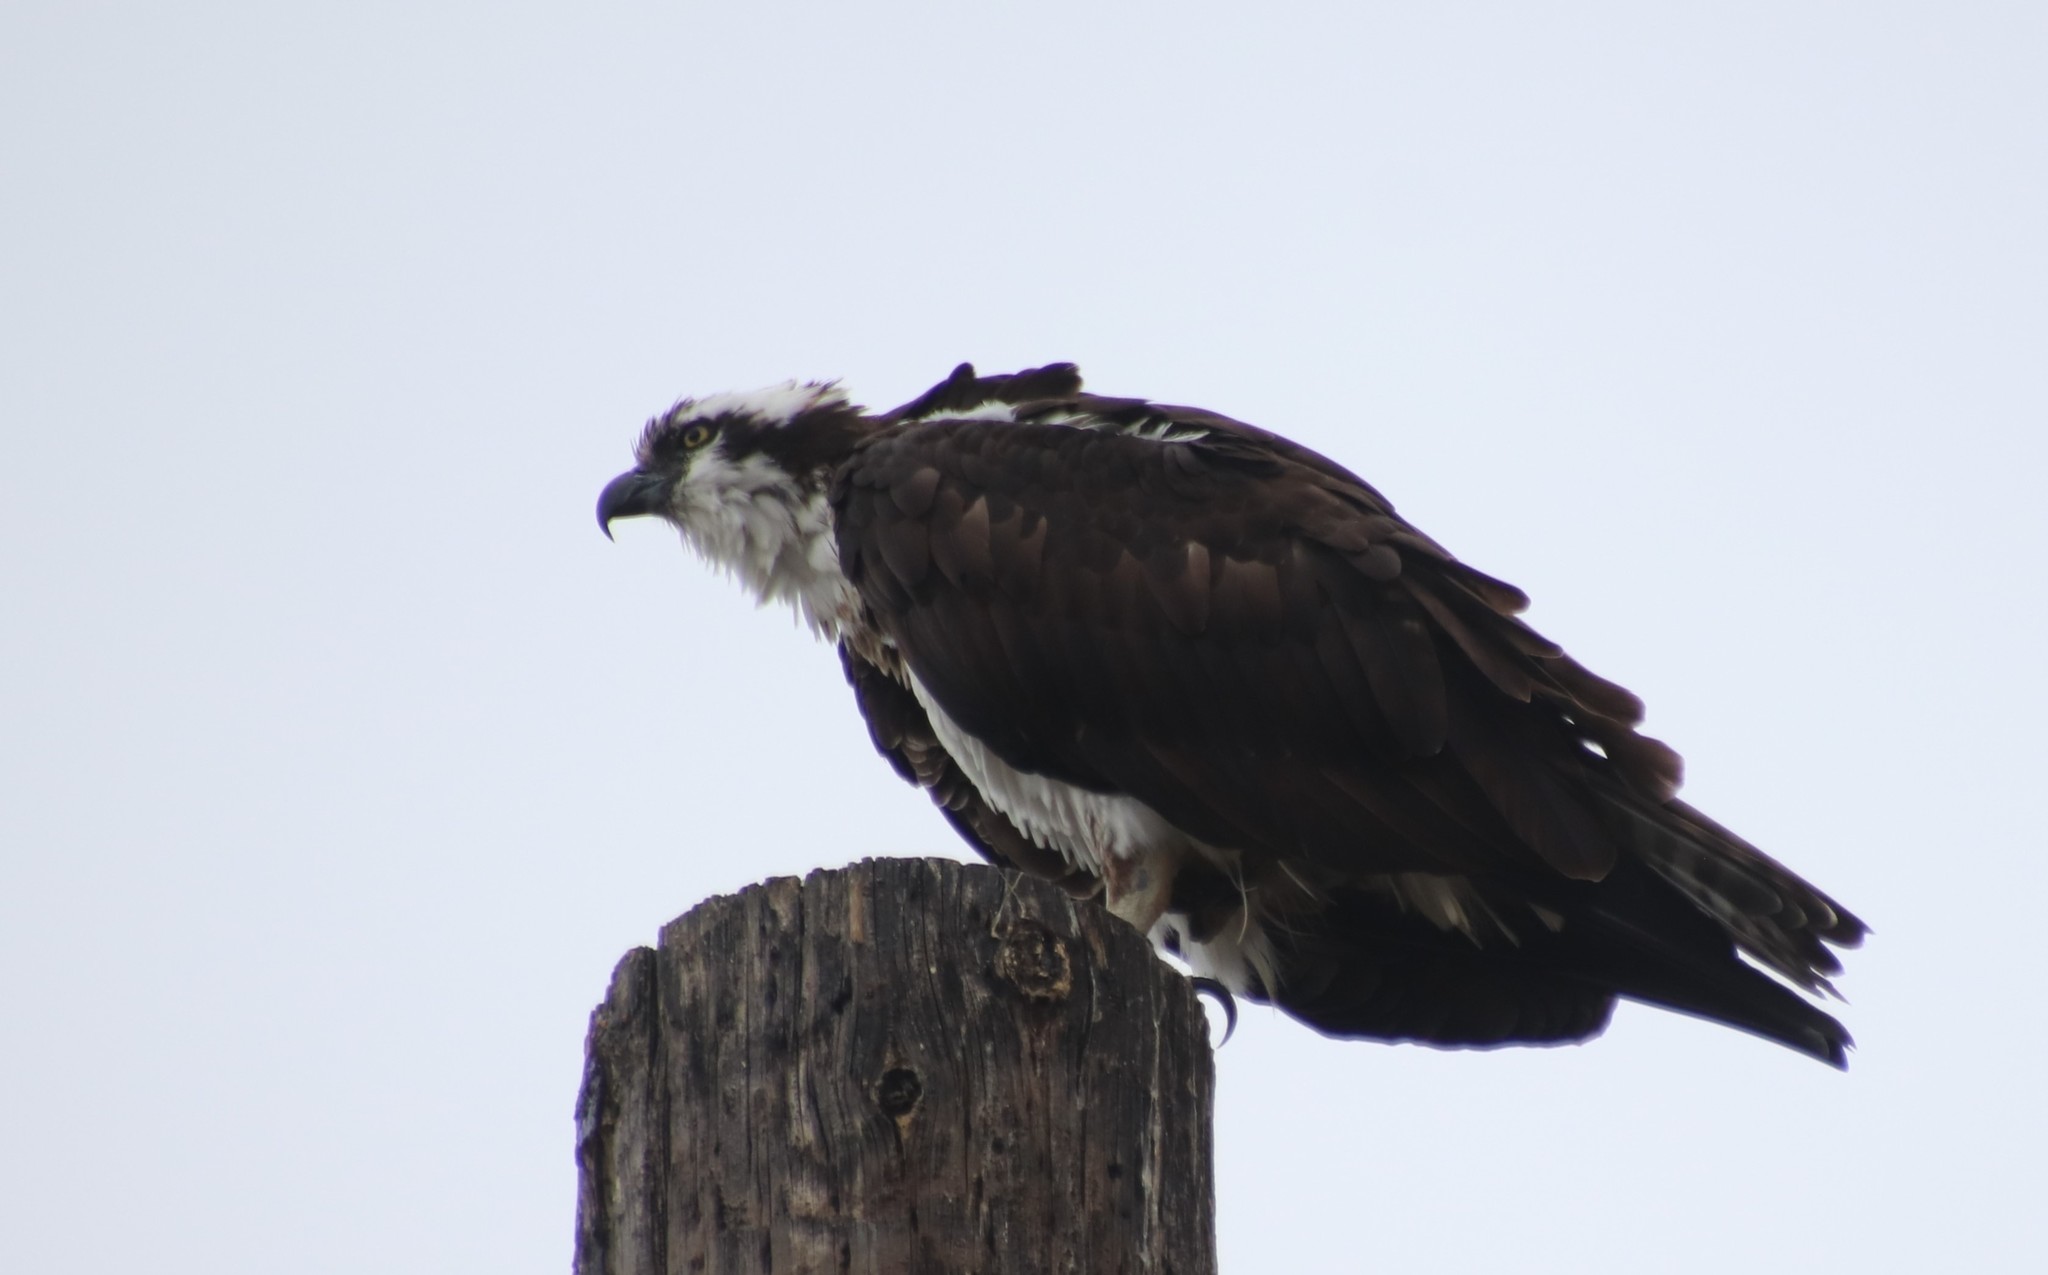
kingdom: Animalia
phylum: Chordata
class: Aves
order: Accipitriformes
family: Pandionidae
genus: Pandion
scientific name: Pandion haliaetus
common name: Osprey
